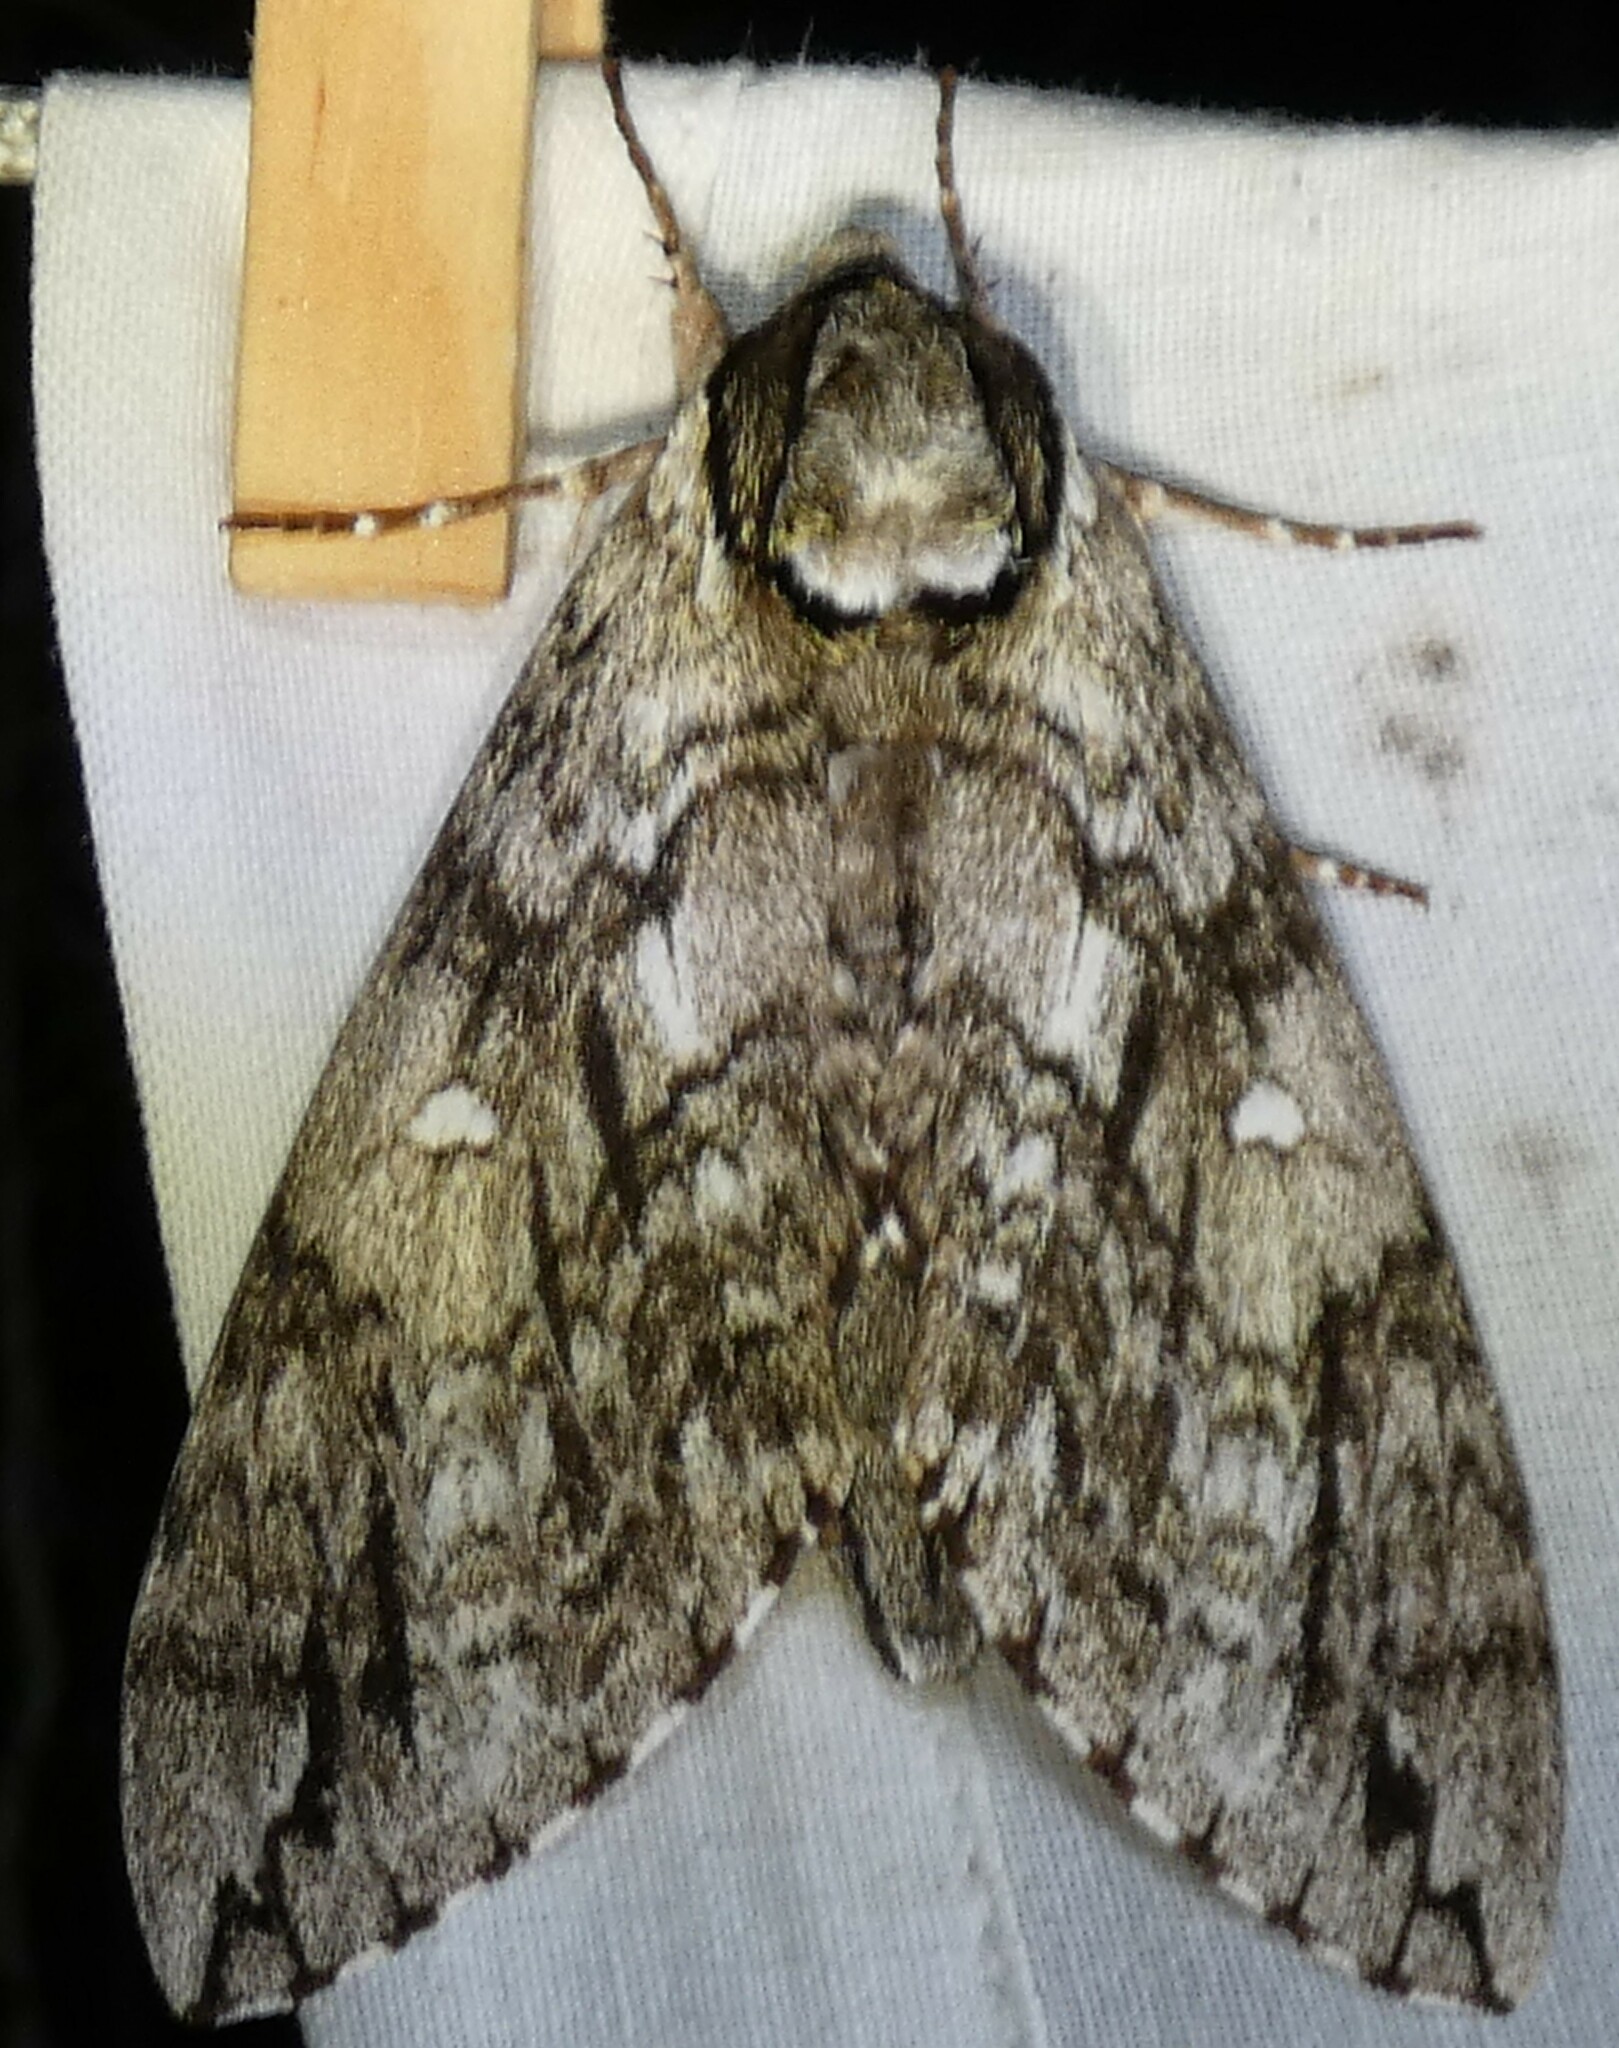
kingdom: Animalia
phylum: Arthropoda
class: Insecta
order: Lepidoptera
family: Sphingidae
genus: Ceratomia
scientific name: Ceratomia undulosa
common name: Waved sphinx
